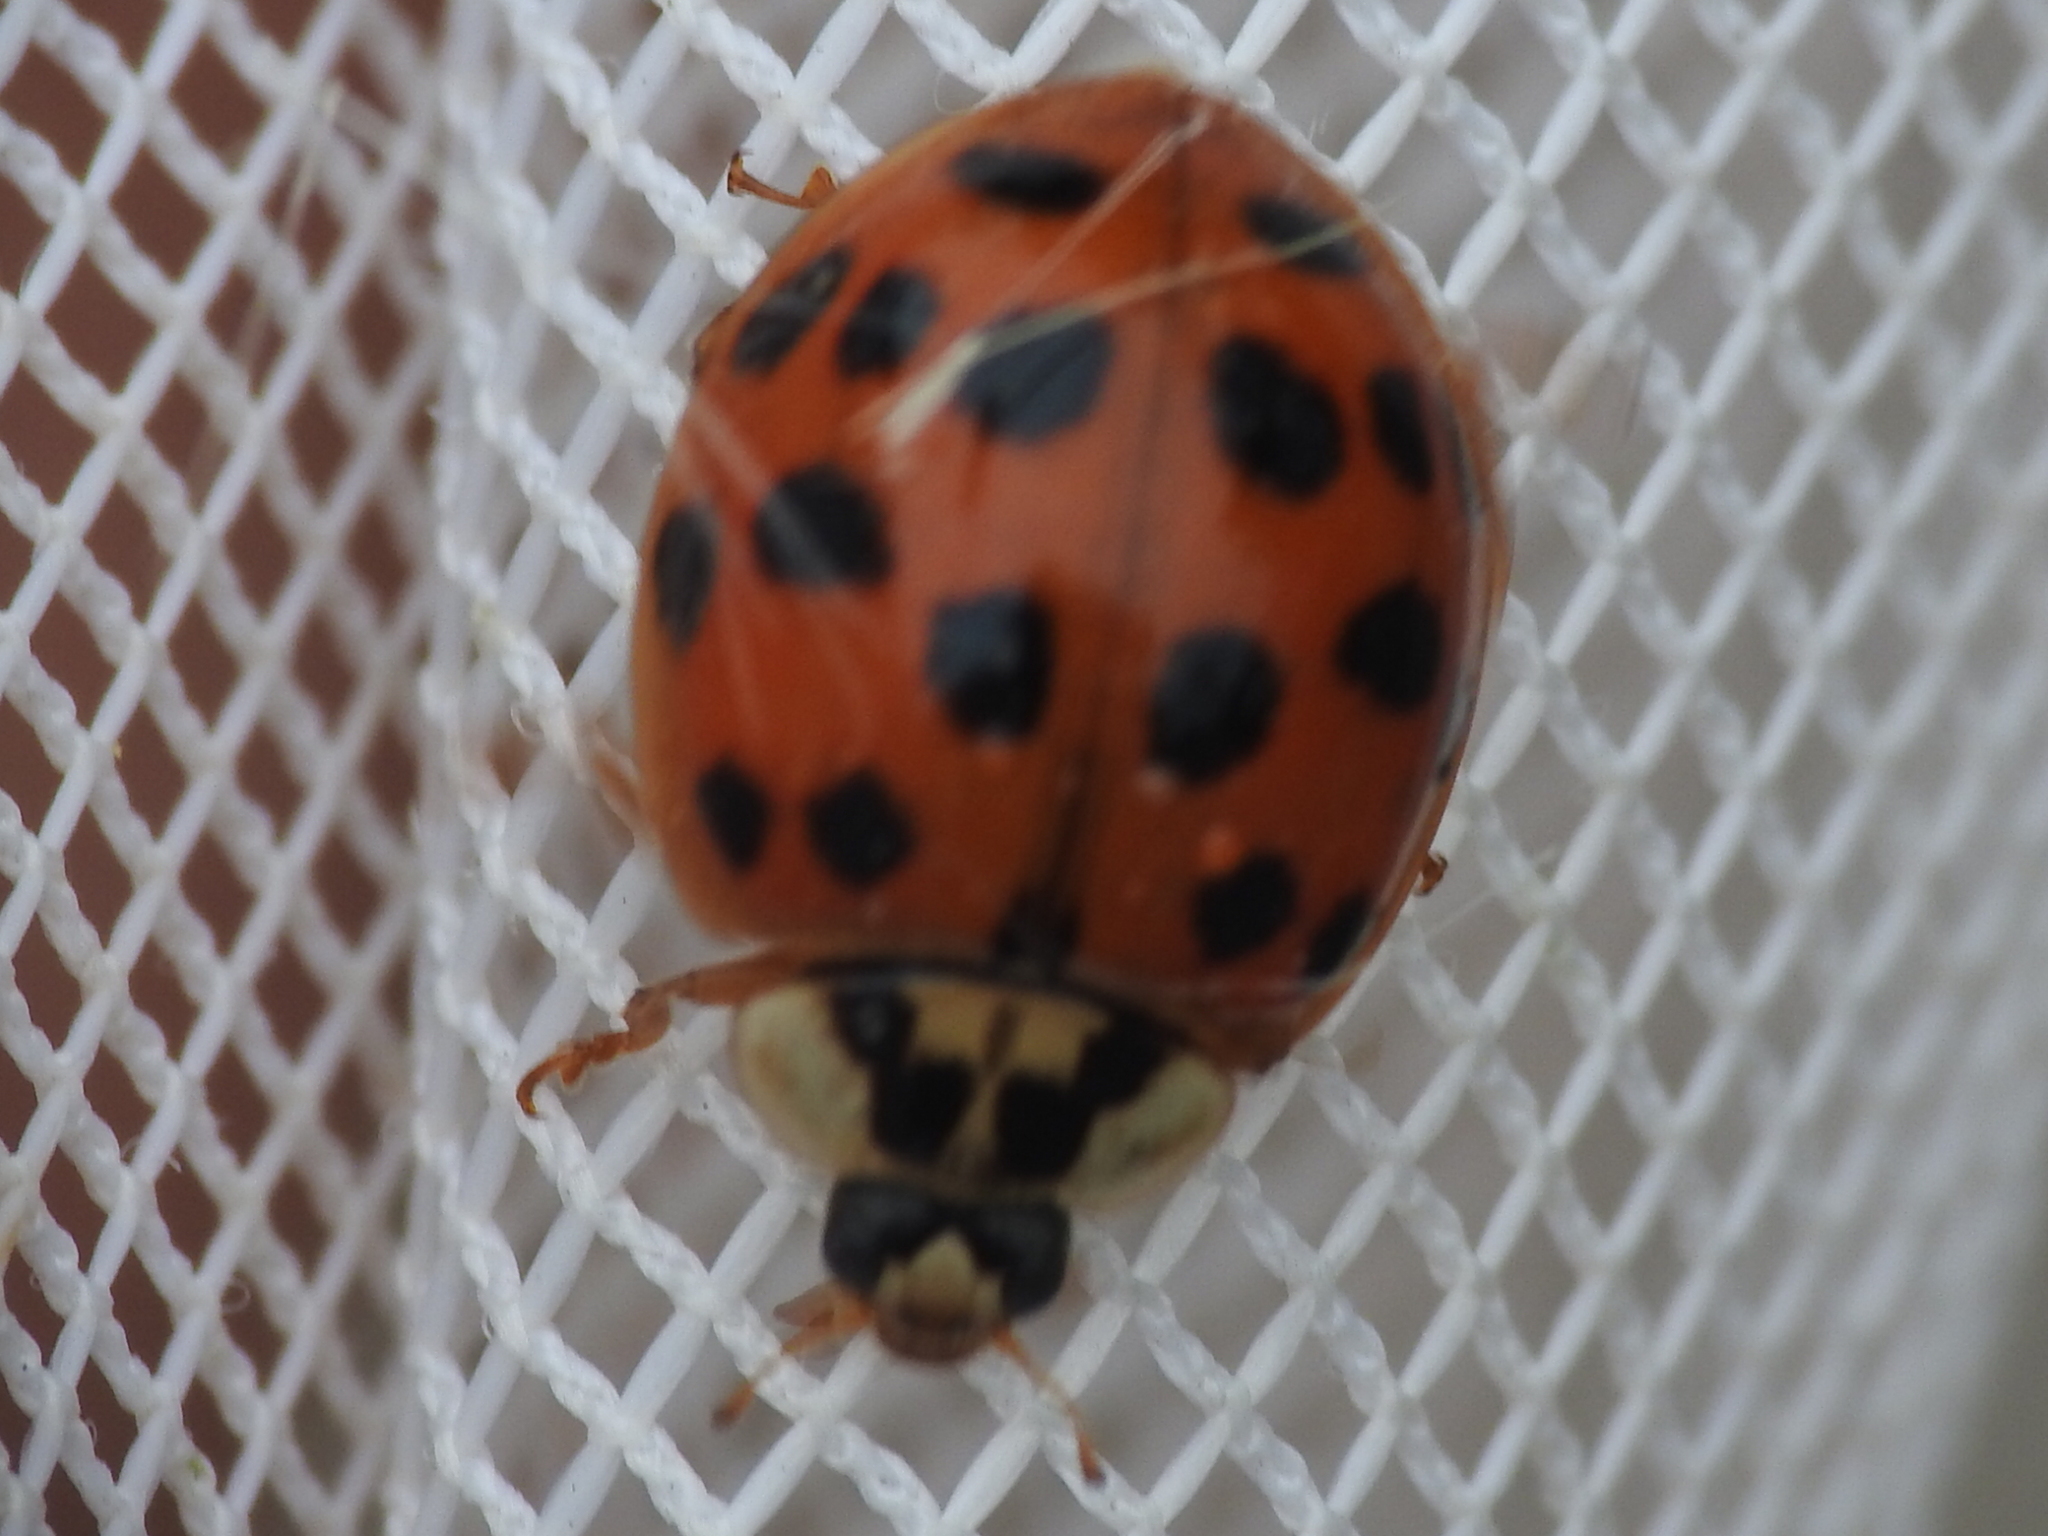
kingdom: Animalia
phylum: Arthropoda
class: Insecta
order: Coleoptera
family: Coccinellidae
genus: Harmonia
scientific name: Harmonia axyridis
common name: Harlequin ladybird
